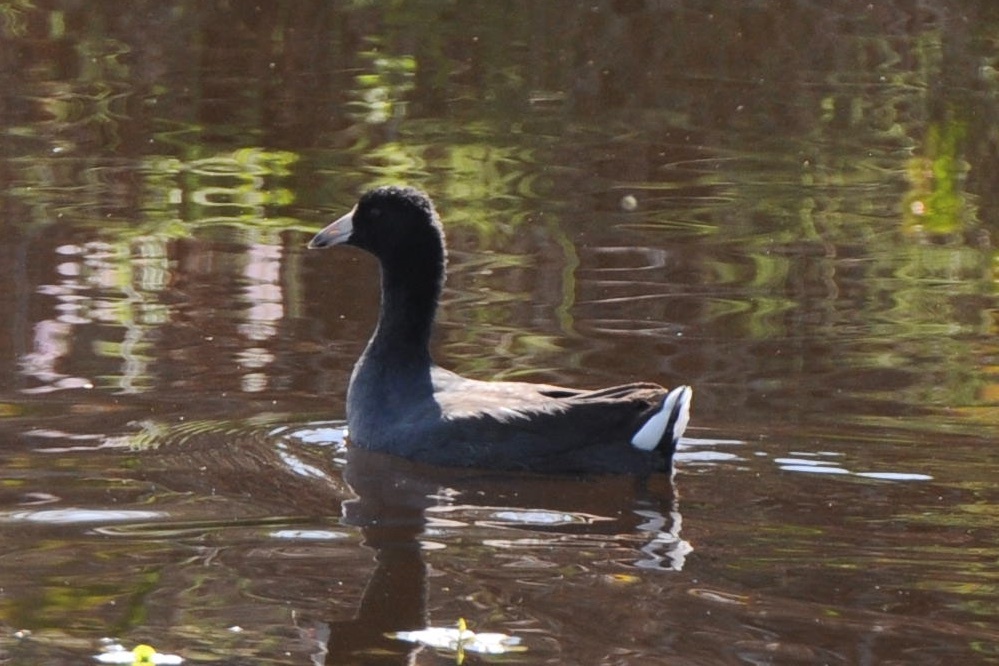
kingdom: Animalia
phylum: Chordata
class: Aves
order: Gruiformes
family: Rallidae
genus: Fulica
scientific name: Fulica americana
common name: American coot
